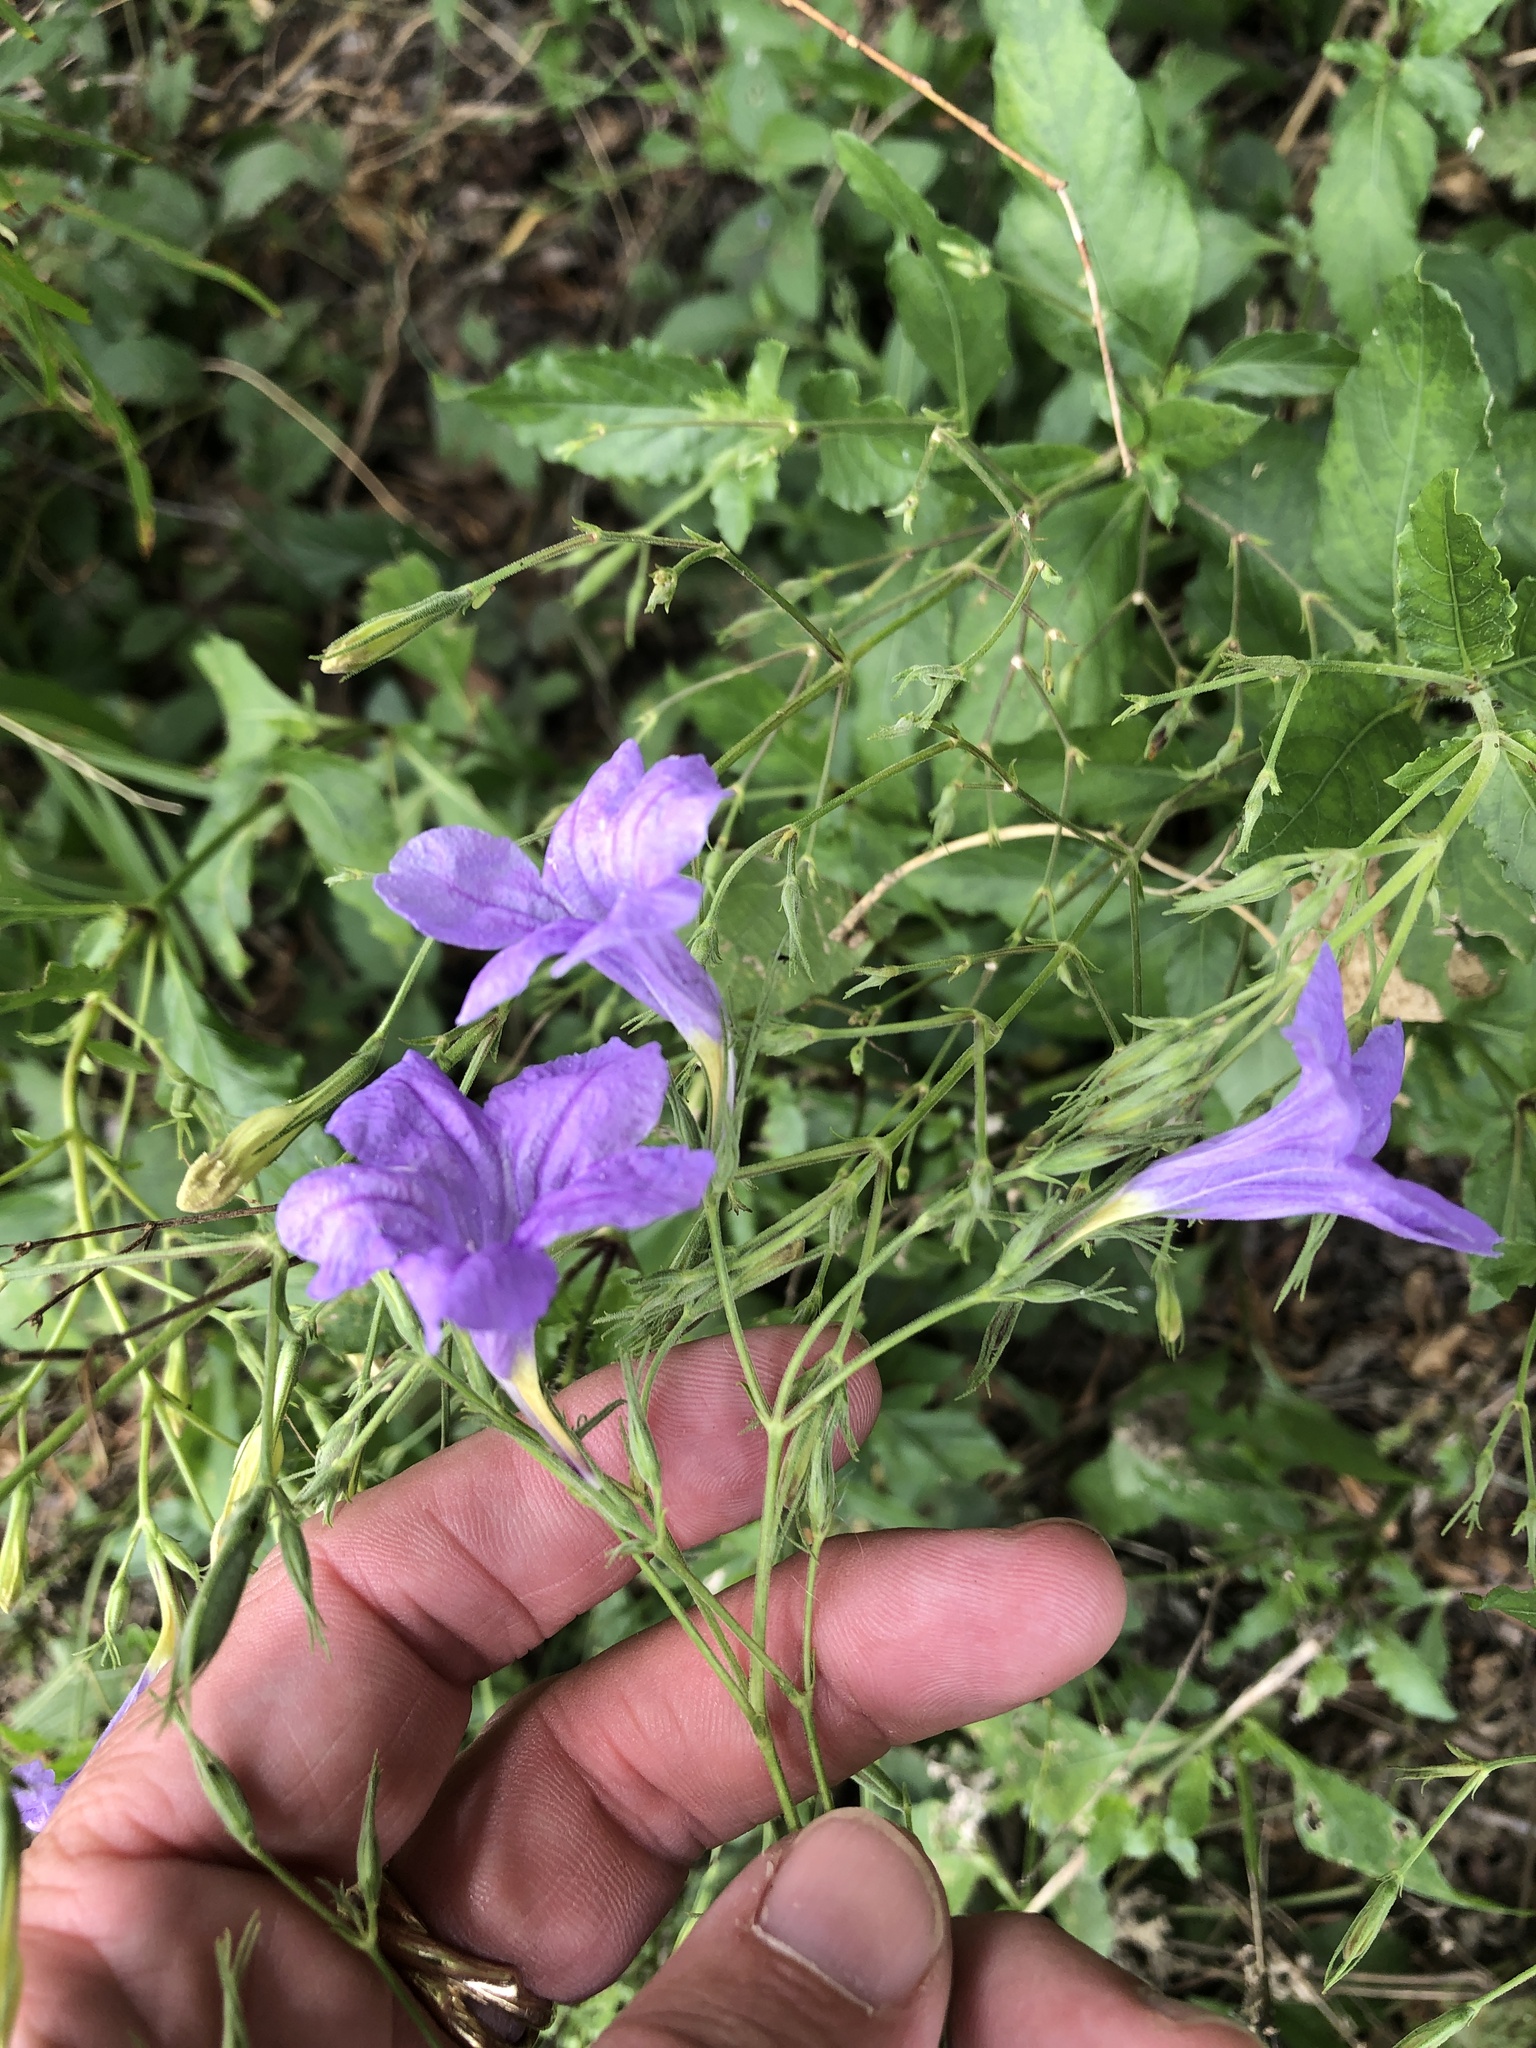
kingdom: Plantae
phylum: Tracheophyta
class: Magnoliopsida
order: Lamiales
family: Acanthaceae
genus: Ruellia
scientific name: Ruellia ciliatiflora
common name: Hairyflower wild petunia
